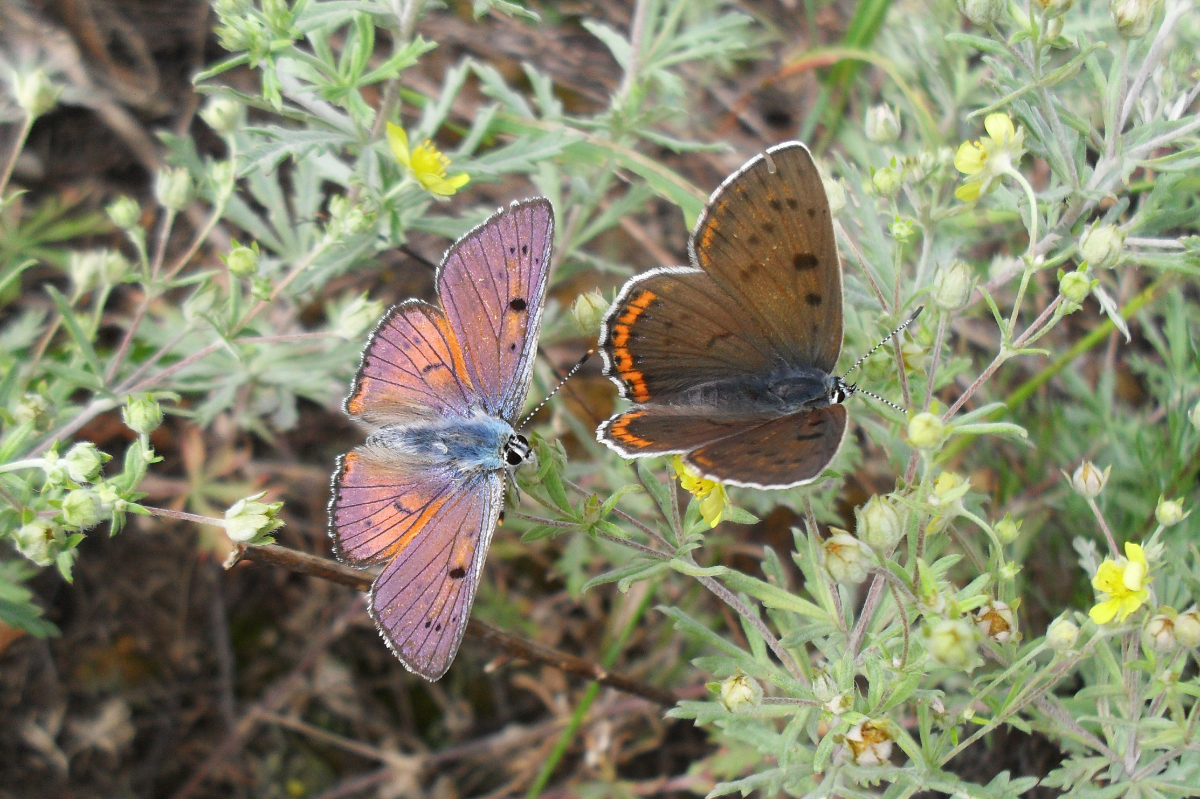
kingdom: Animalia
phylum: Arthropoda
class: Insecta
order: Lepidoptera
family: Lycaenidae
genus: Lycaena
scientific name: Lycaena alciphron
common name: Purple-shot copper
